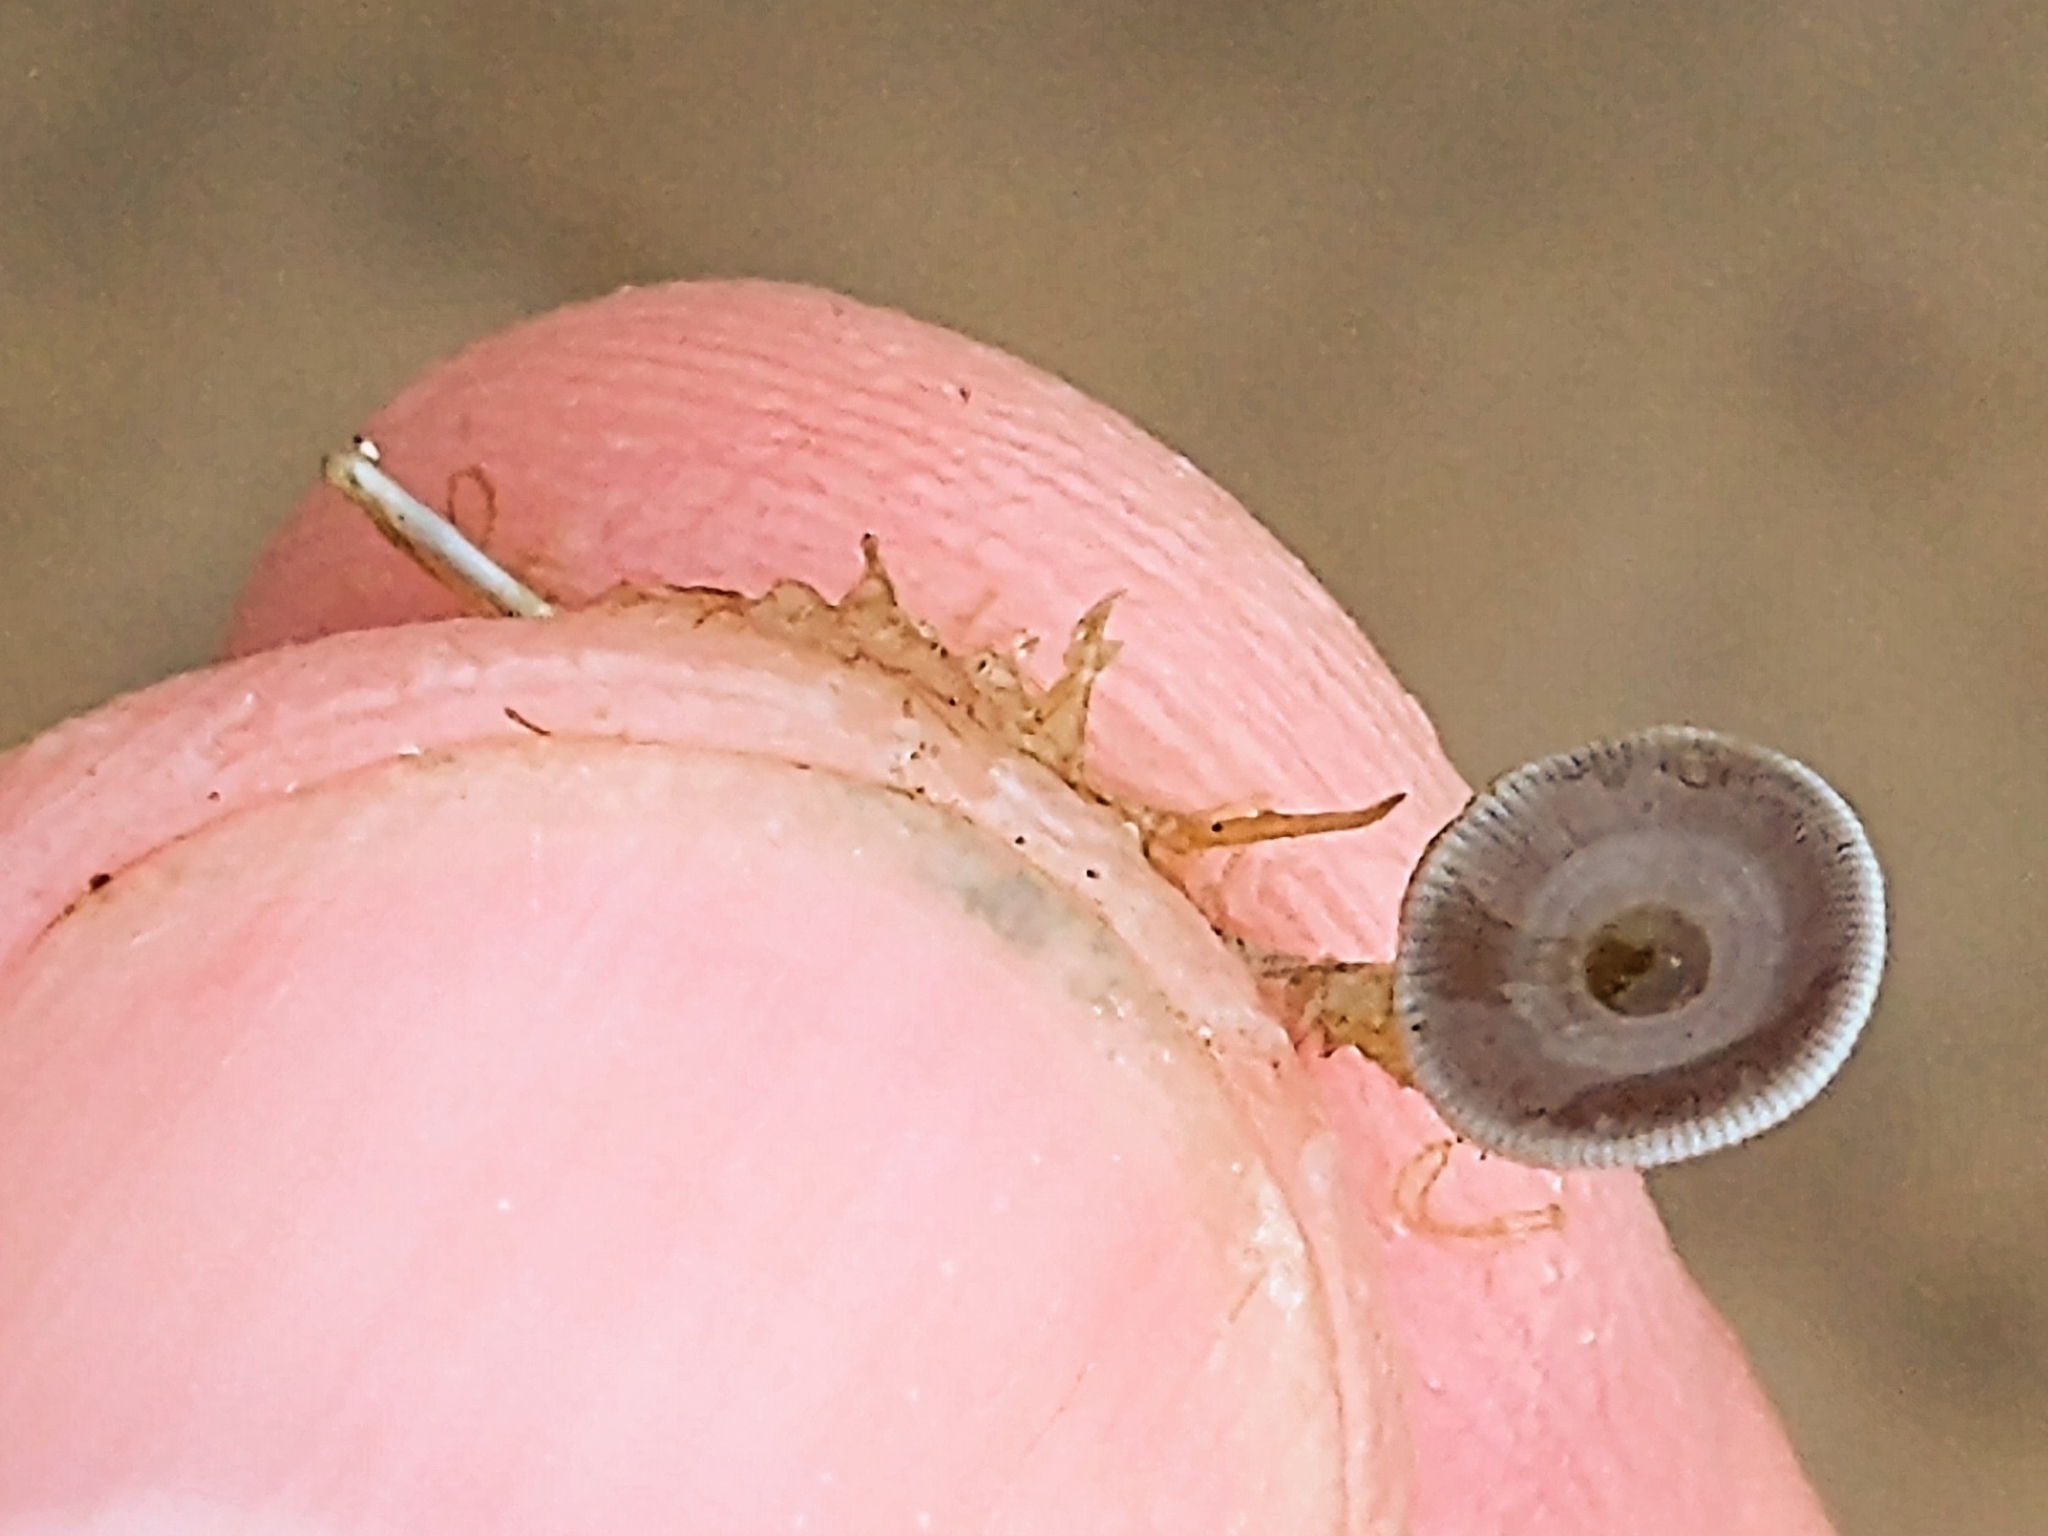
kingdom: Plantae
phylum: Chlorophyta
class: Ulvophyceae
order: Dasycladales
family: Polyphysaceae
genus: Acetabularia
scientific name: Acetabularia acetabulum
